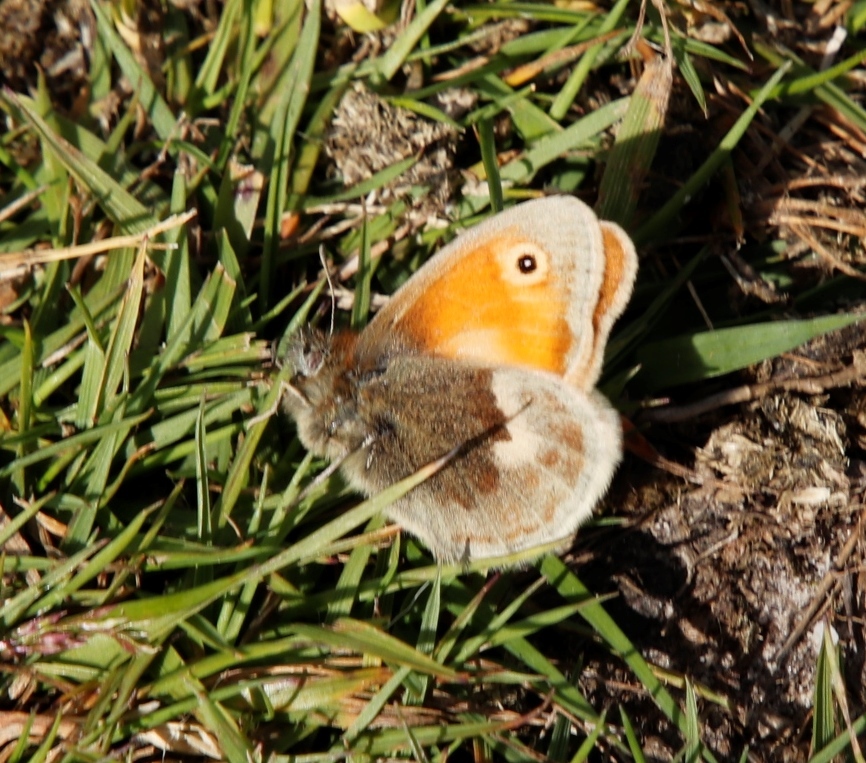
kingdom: Animalia
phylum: Arthropoda
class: Insecta
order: Lepidoptera
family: Nymphalidae
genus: Coenonympha
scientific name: Coenonympha pamphilus
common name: Small heath
